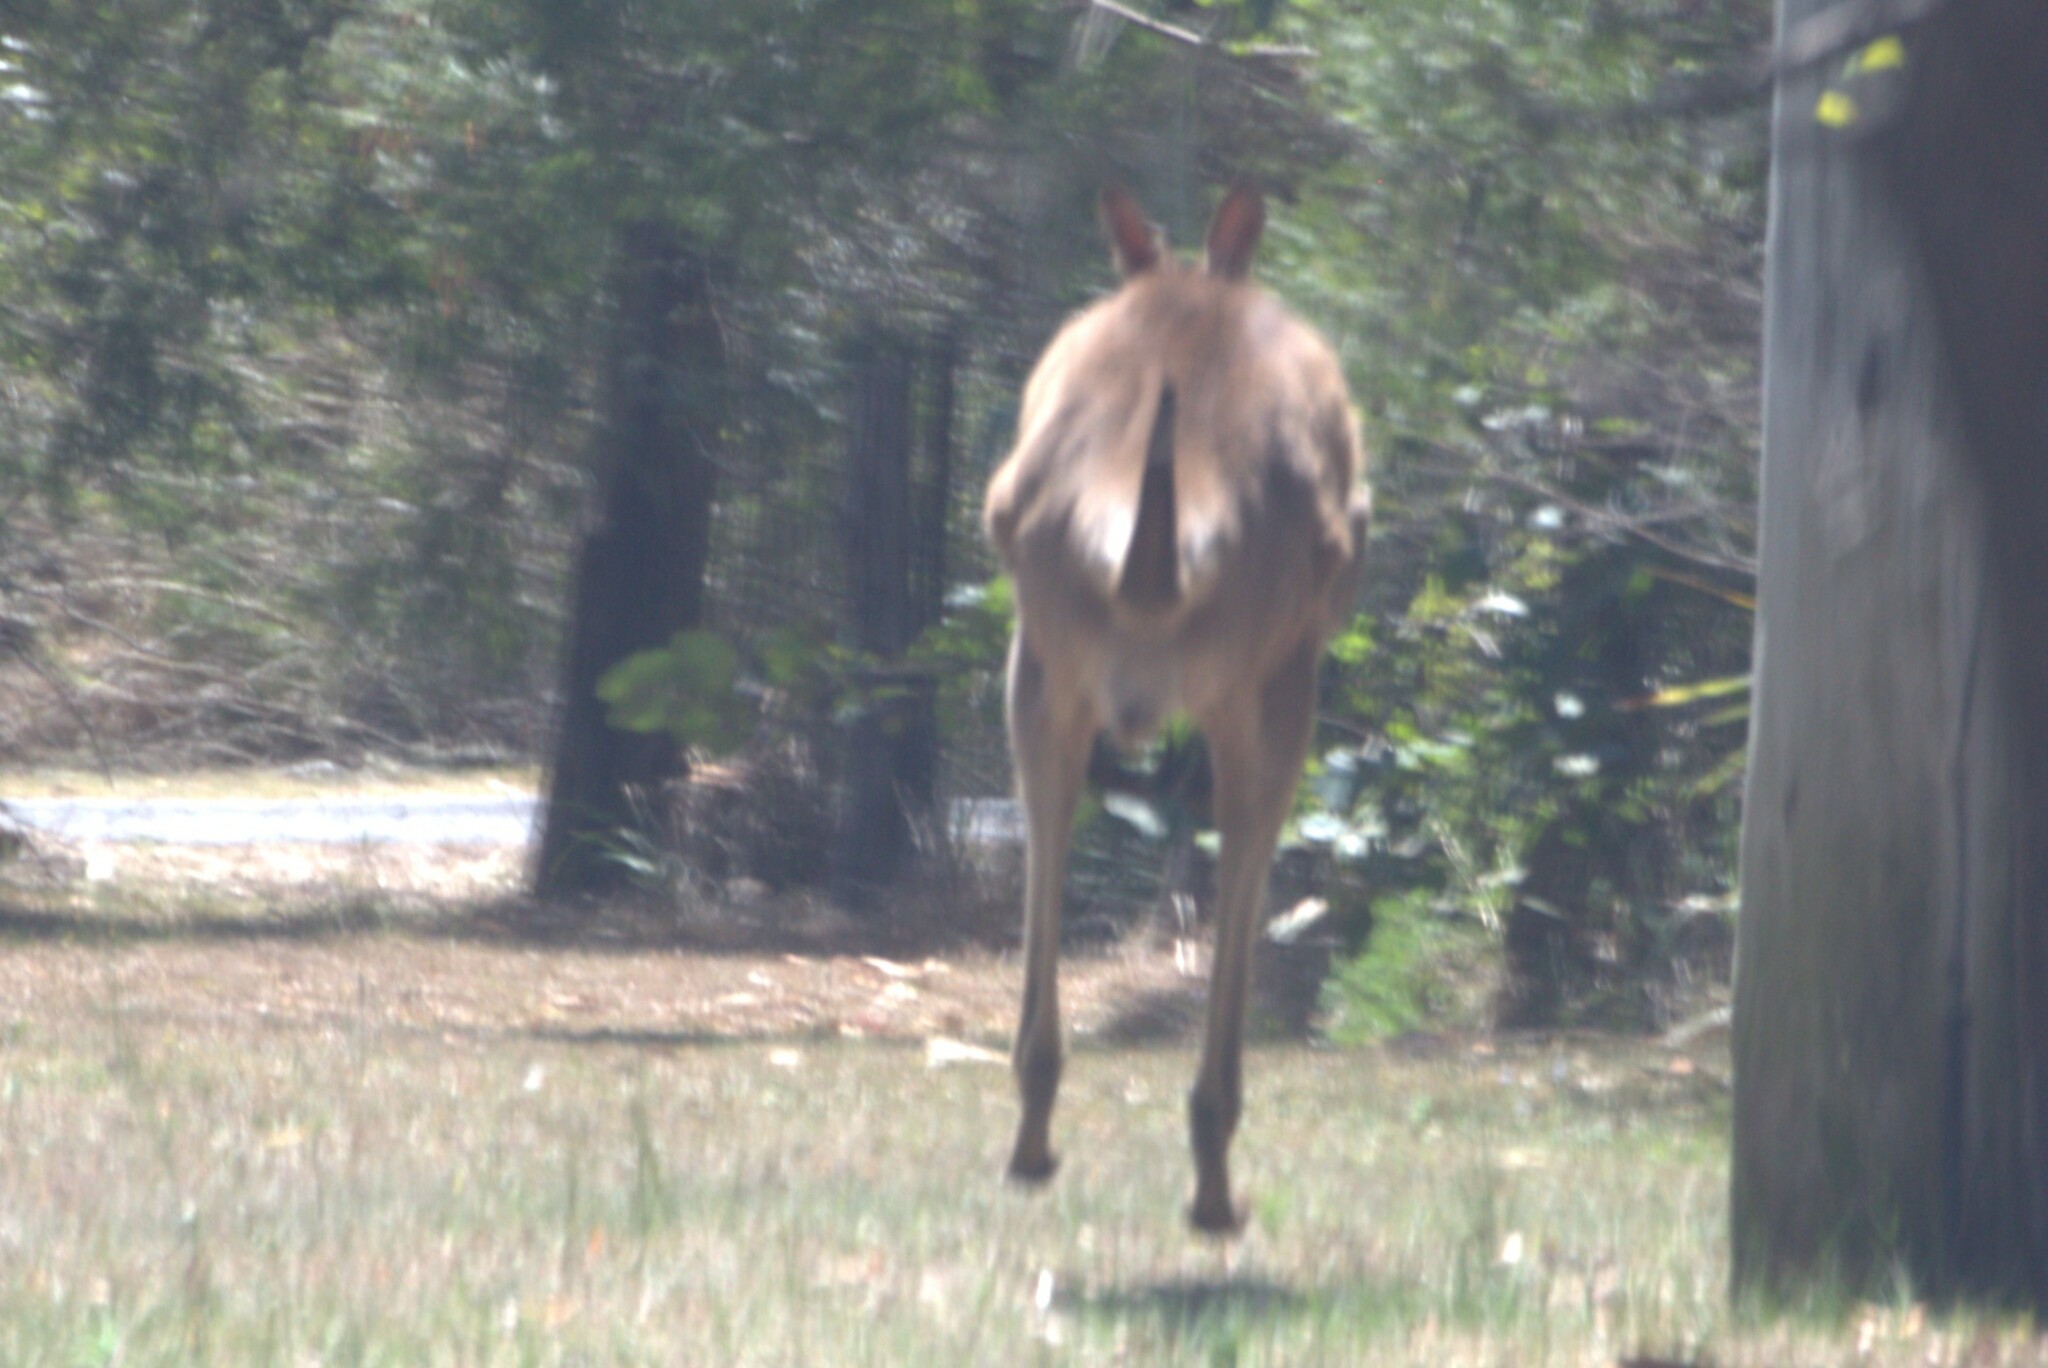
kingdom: Animalia
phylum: Chordata
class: Mammalia
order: Diprotodontia
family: Macropodidae
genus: Macropus
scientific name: Macropus giganteus
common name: Eastern grey kangaroo
